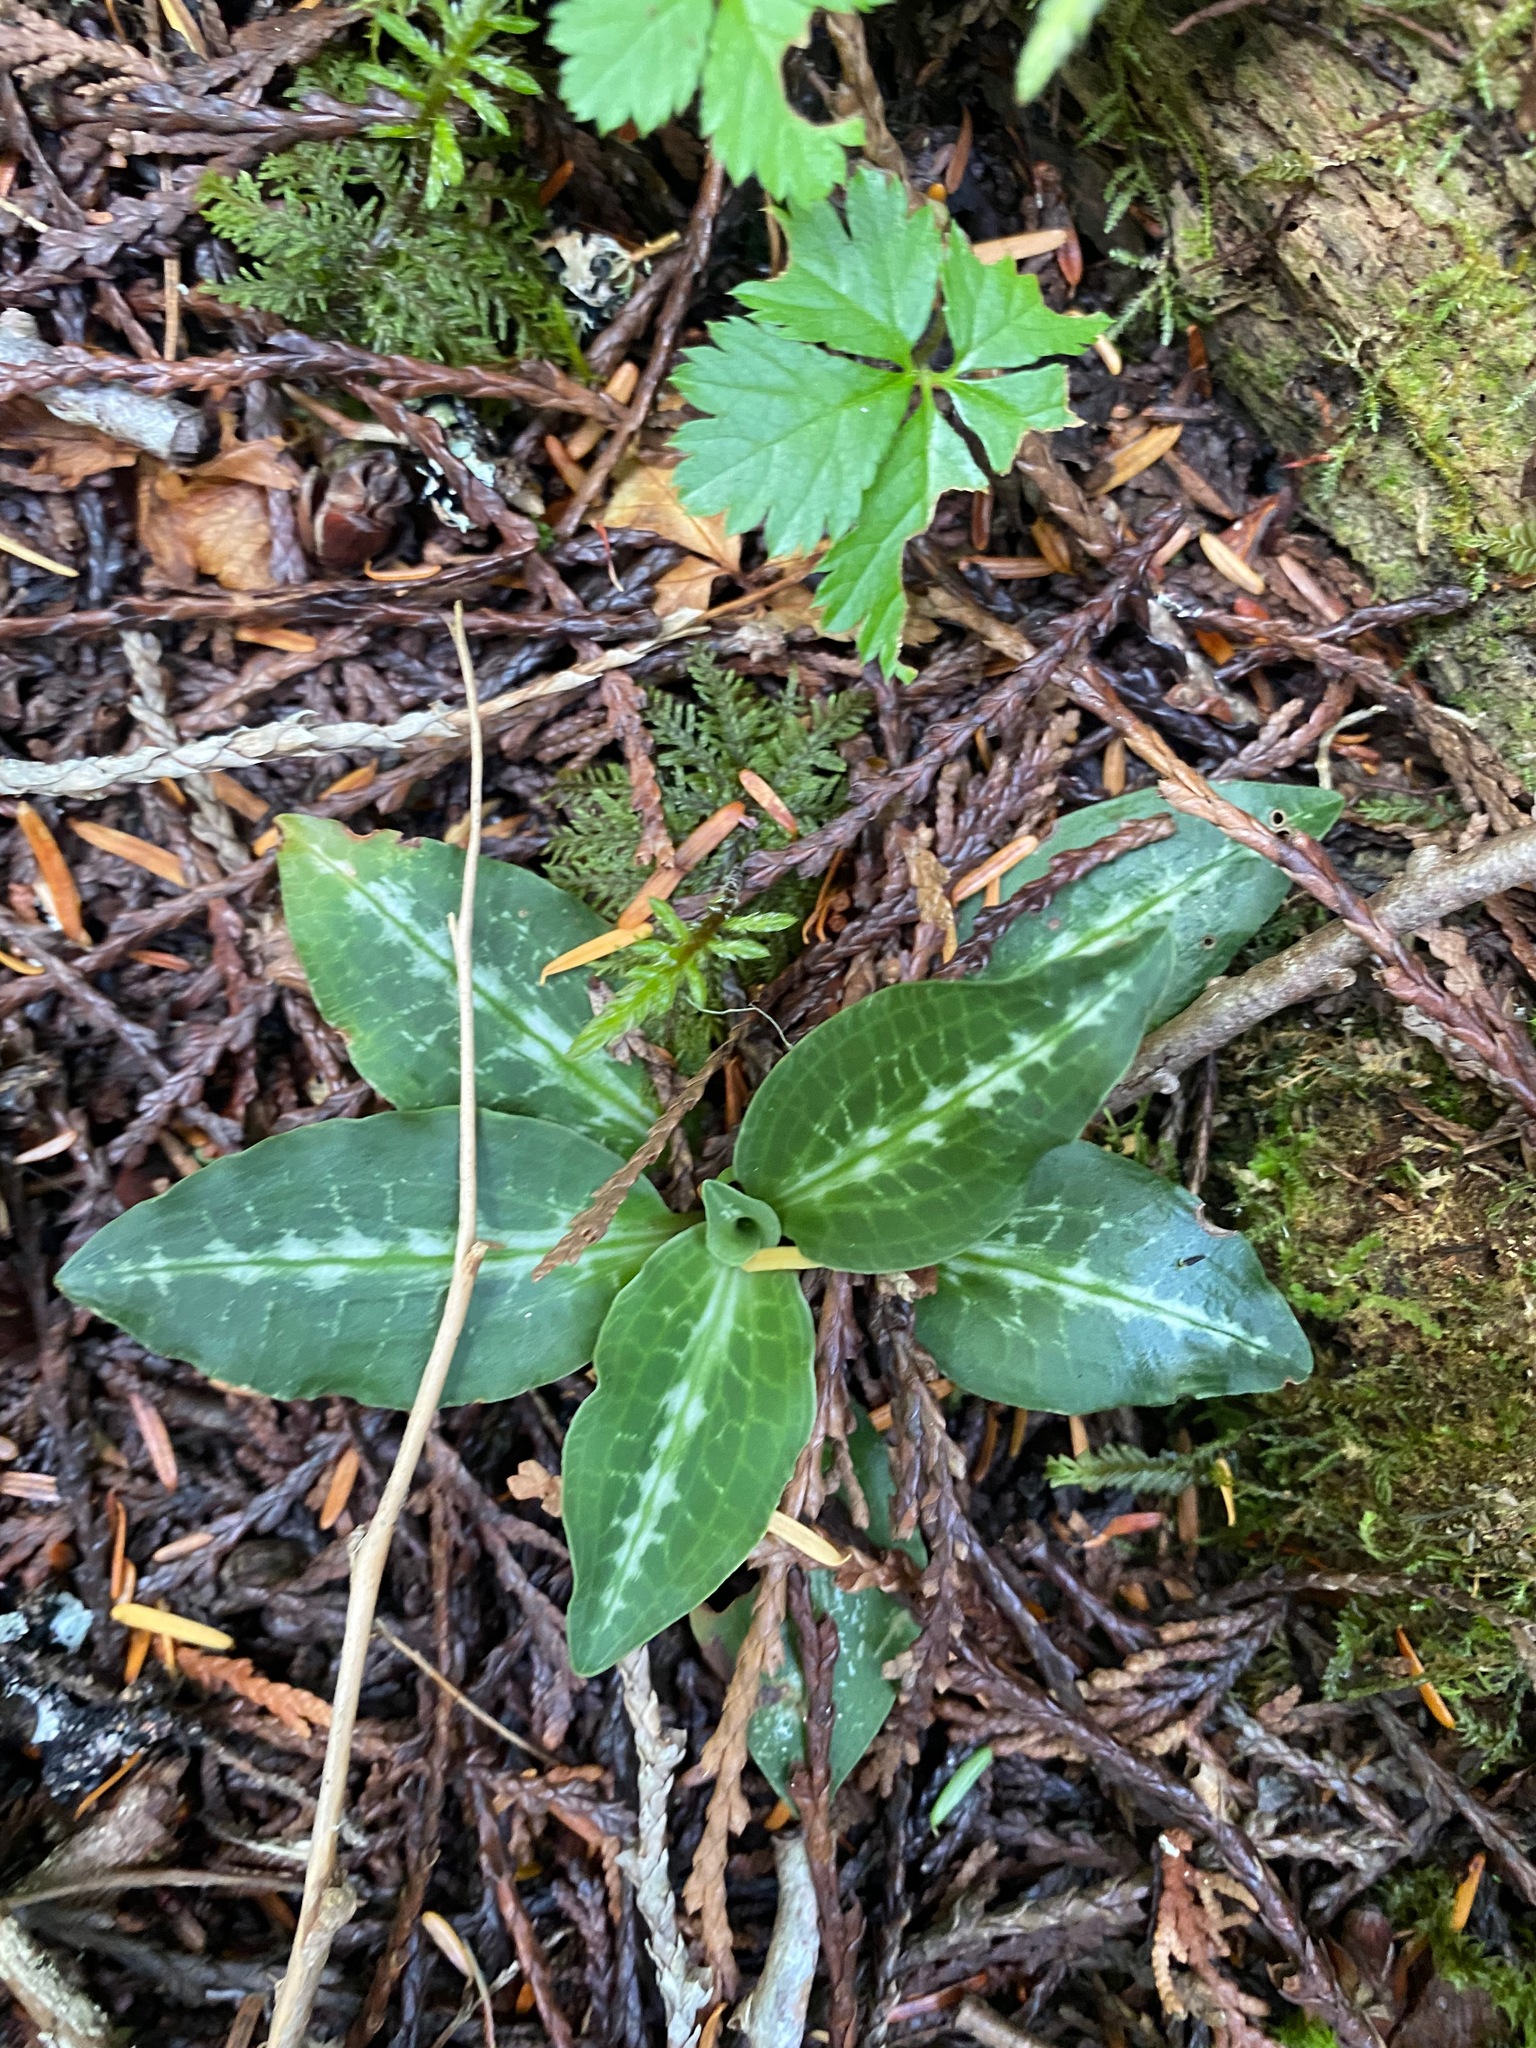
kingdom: Plantae
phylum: Tracheophyta
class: Liliopsida
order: Asparagales
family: Orchidaceae
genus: Goodyera
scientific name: Goodyera oblongifolia
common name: Giant rattlesnake-plantain
